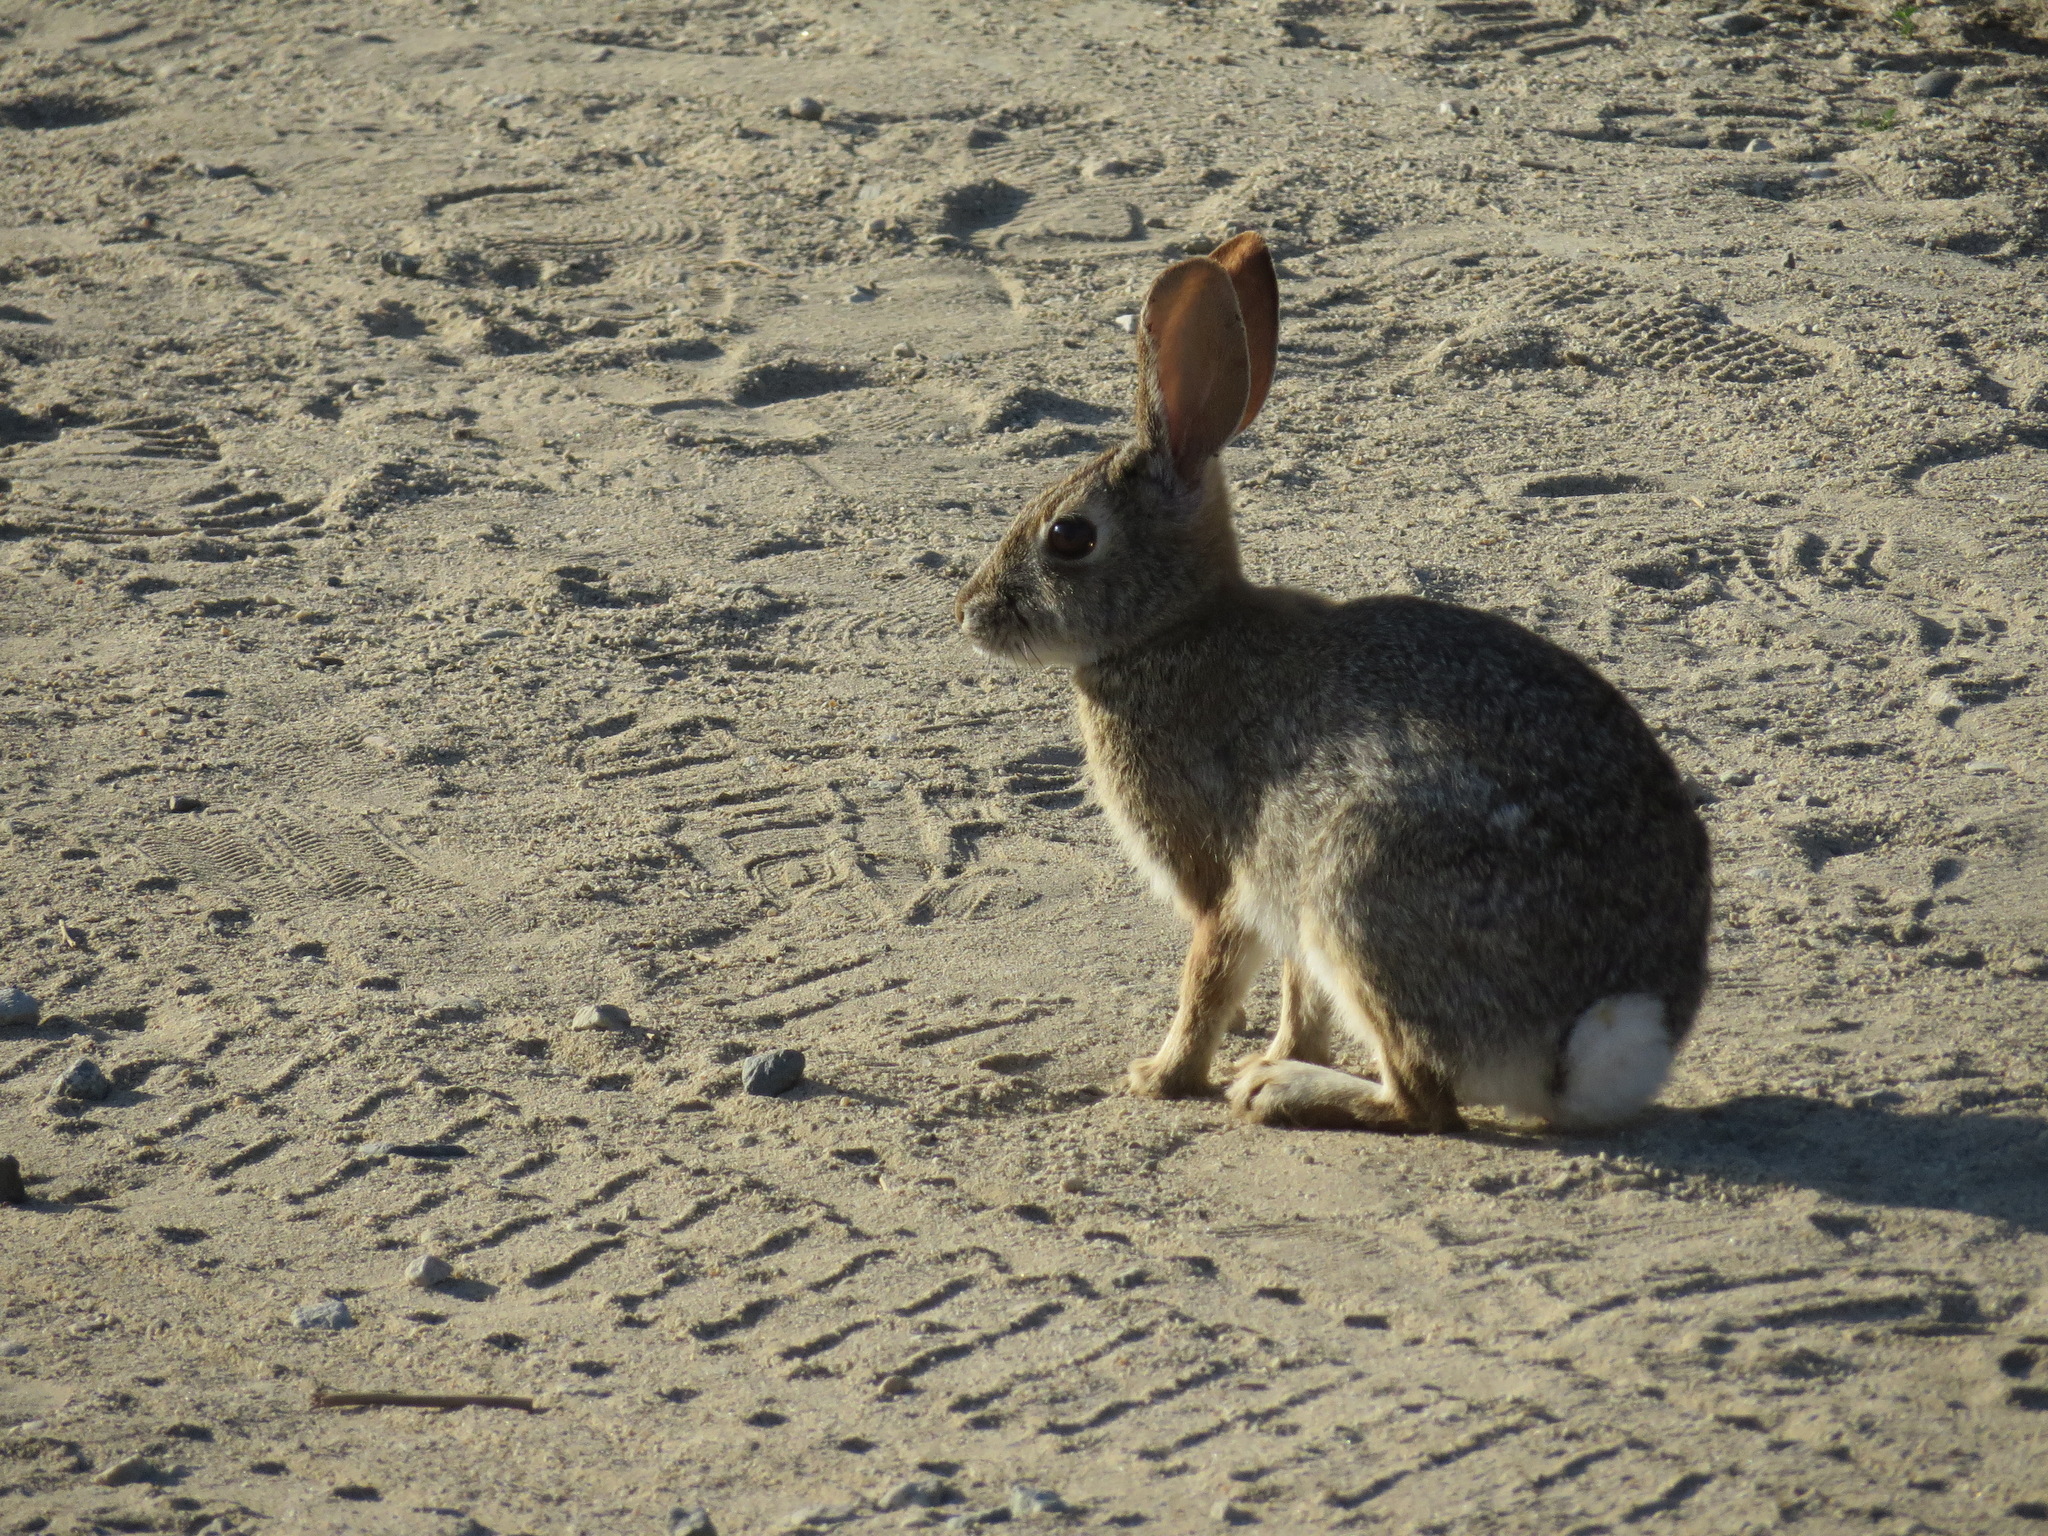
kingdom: Animalia
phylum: Chordata
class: Mammalia
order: Lagomorpha
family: Leporidae
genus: Sylvilagus
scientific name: Sylvilagus audubonii
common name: Desert cottontail
